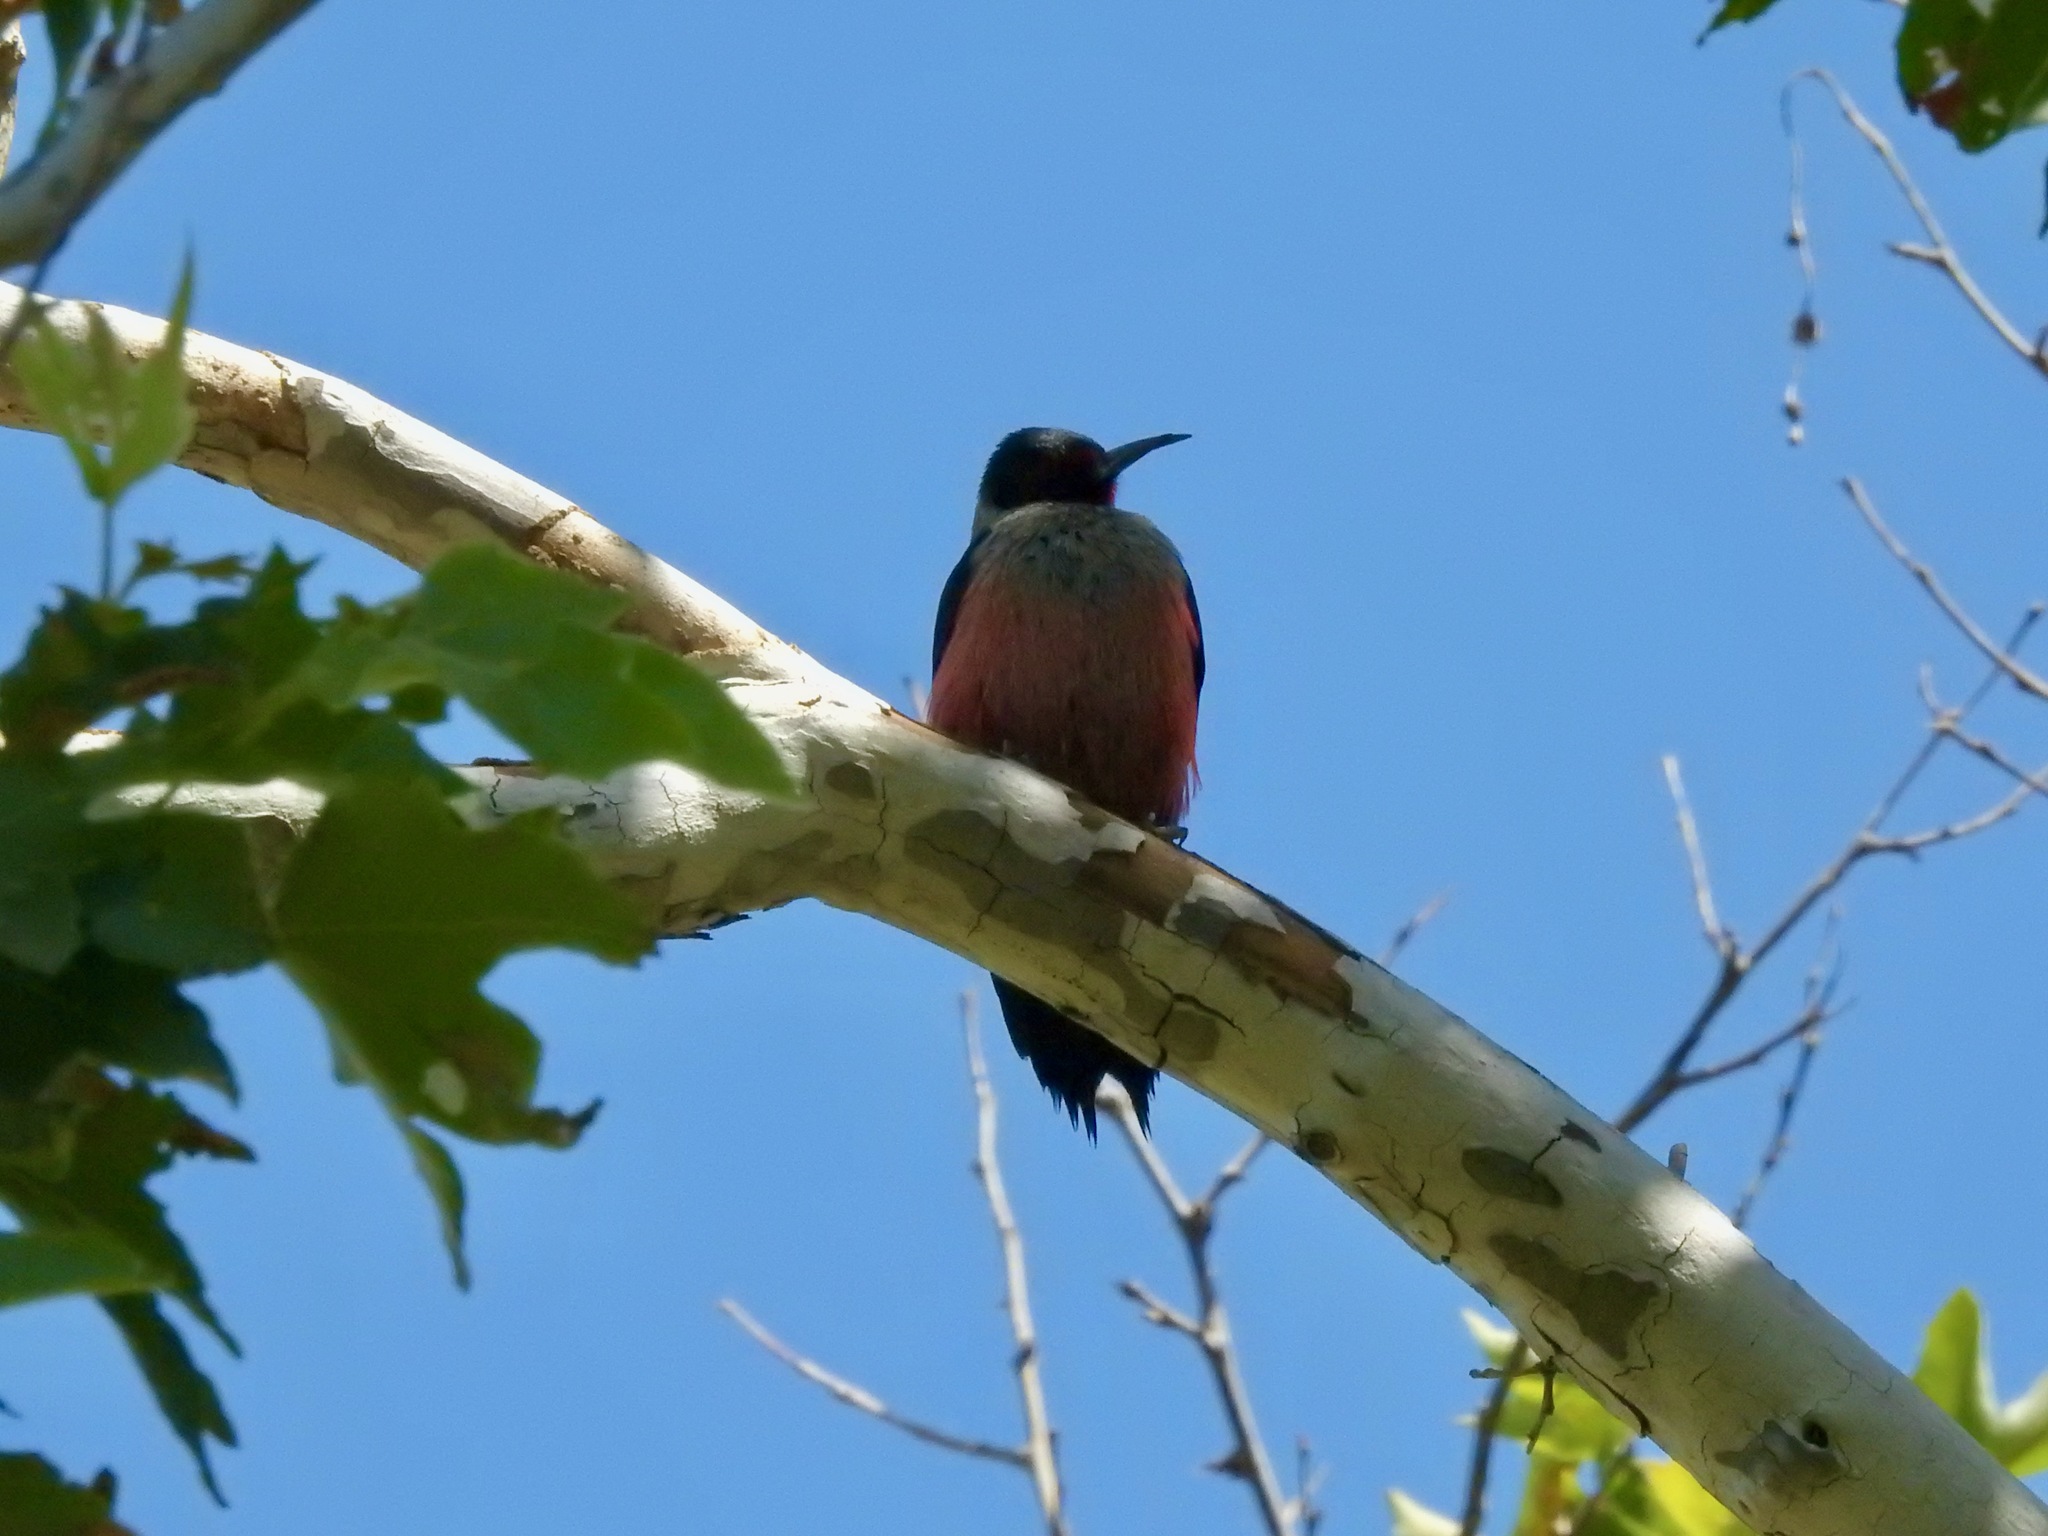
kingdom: Animalia
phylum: Chordata
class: Aves
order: Piciformes
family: Picidae
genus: Melanerpes
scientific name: Melanerpes lewis
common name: Lewis's woodpecker
